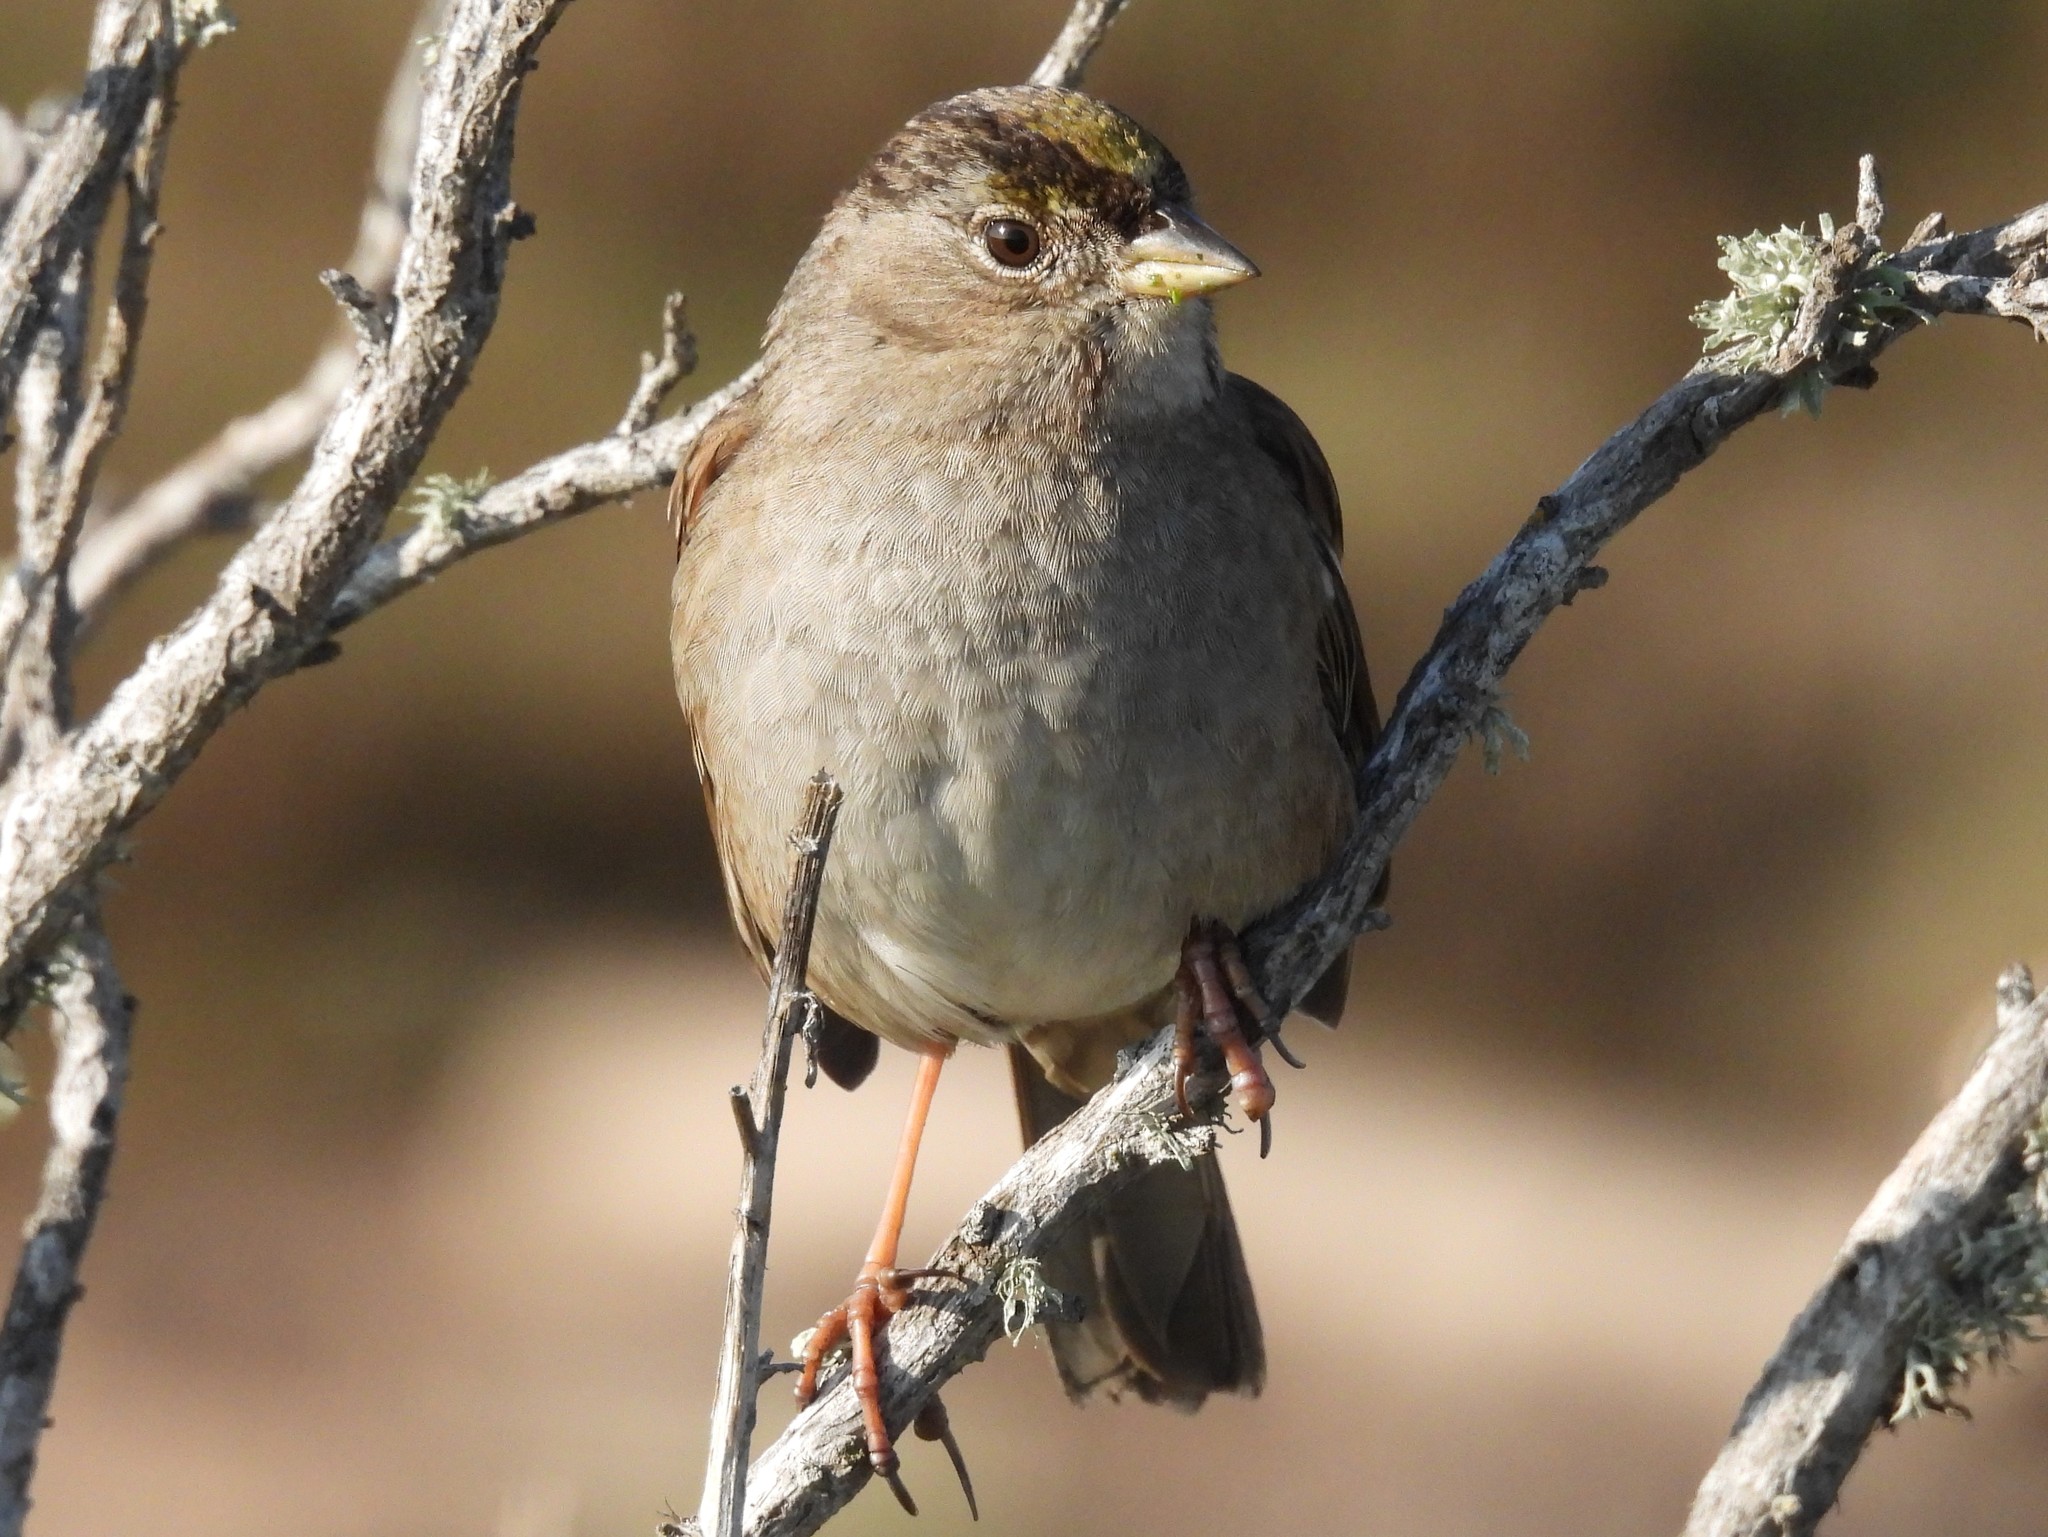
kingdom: Animalia
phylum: Chordata
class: Aves
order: Passeriformes
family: Passerellidae
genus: Zonotrichia
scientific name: Zonotrichia atricapilla
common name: Golden-crowned sparrow
